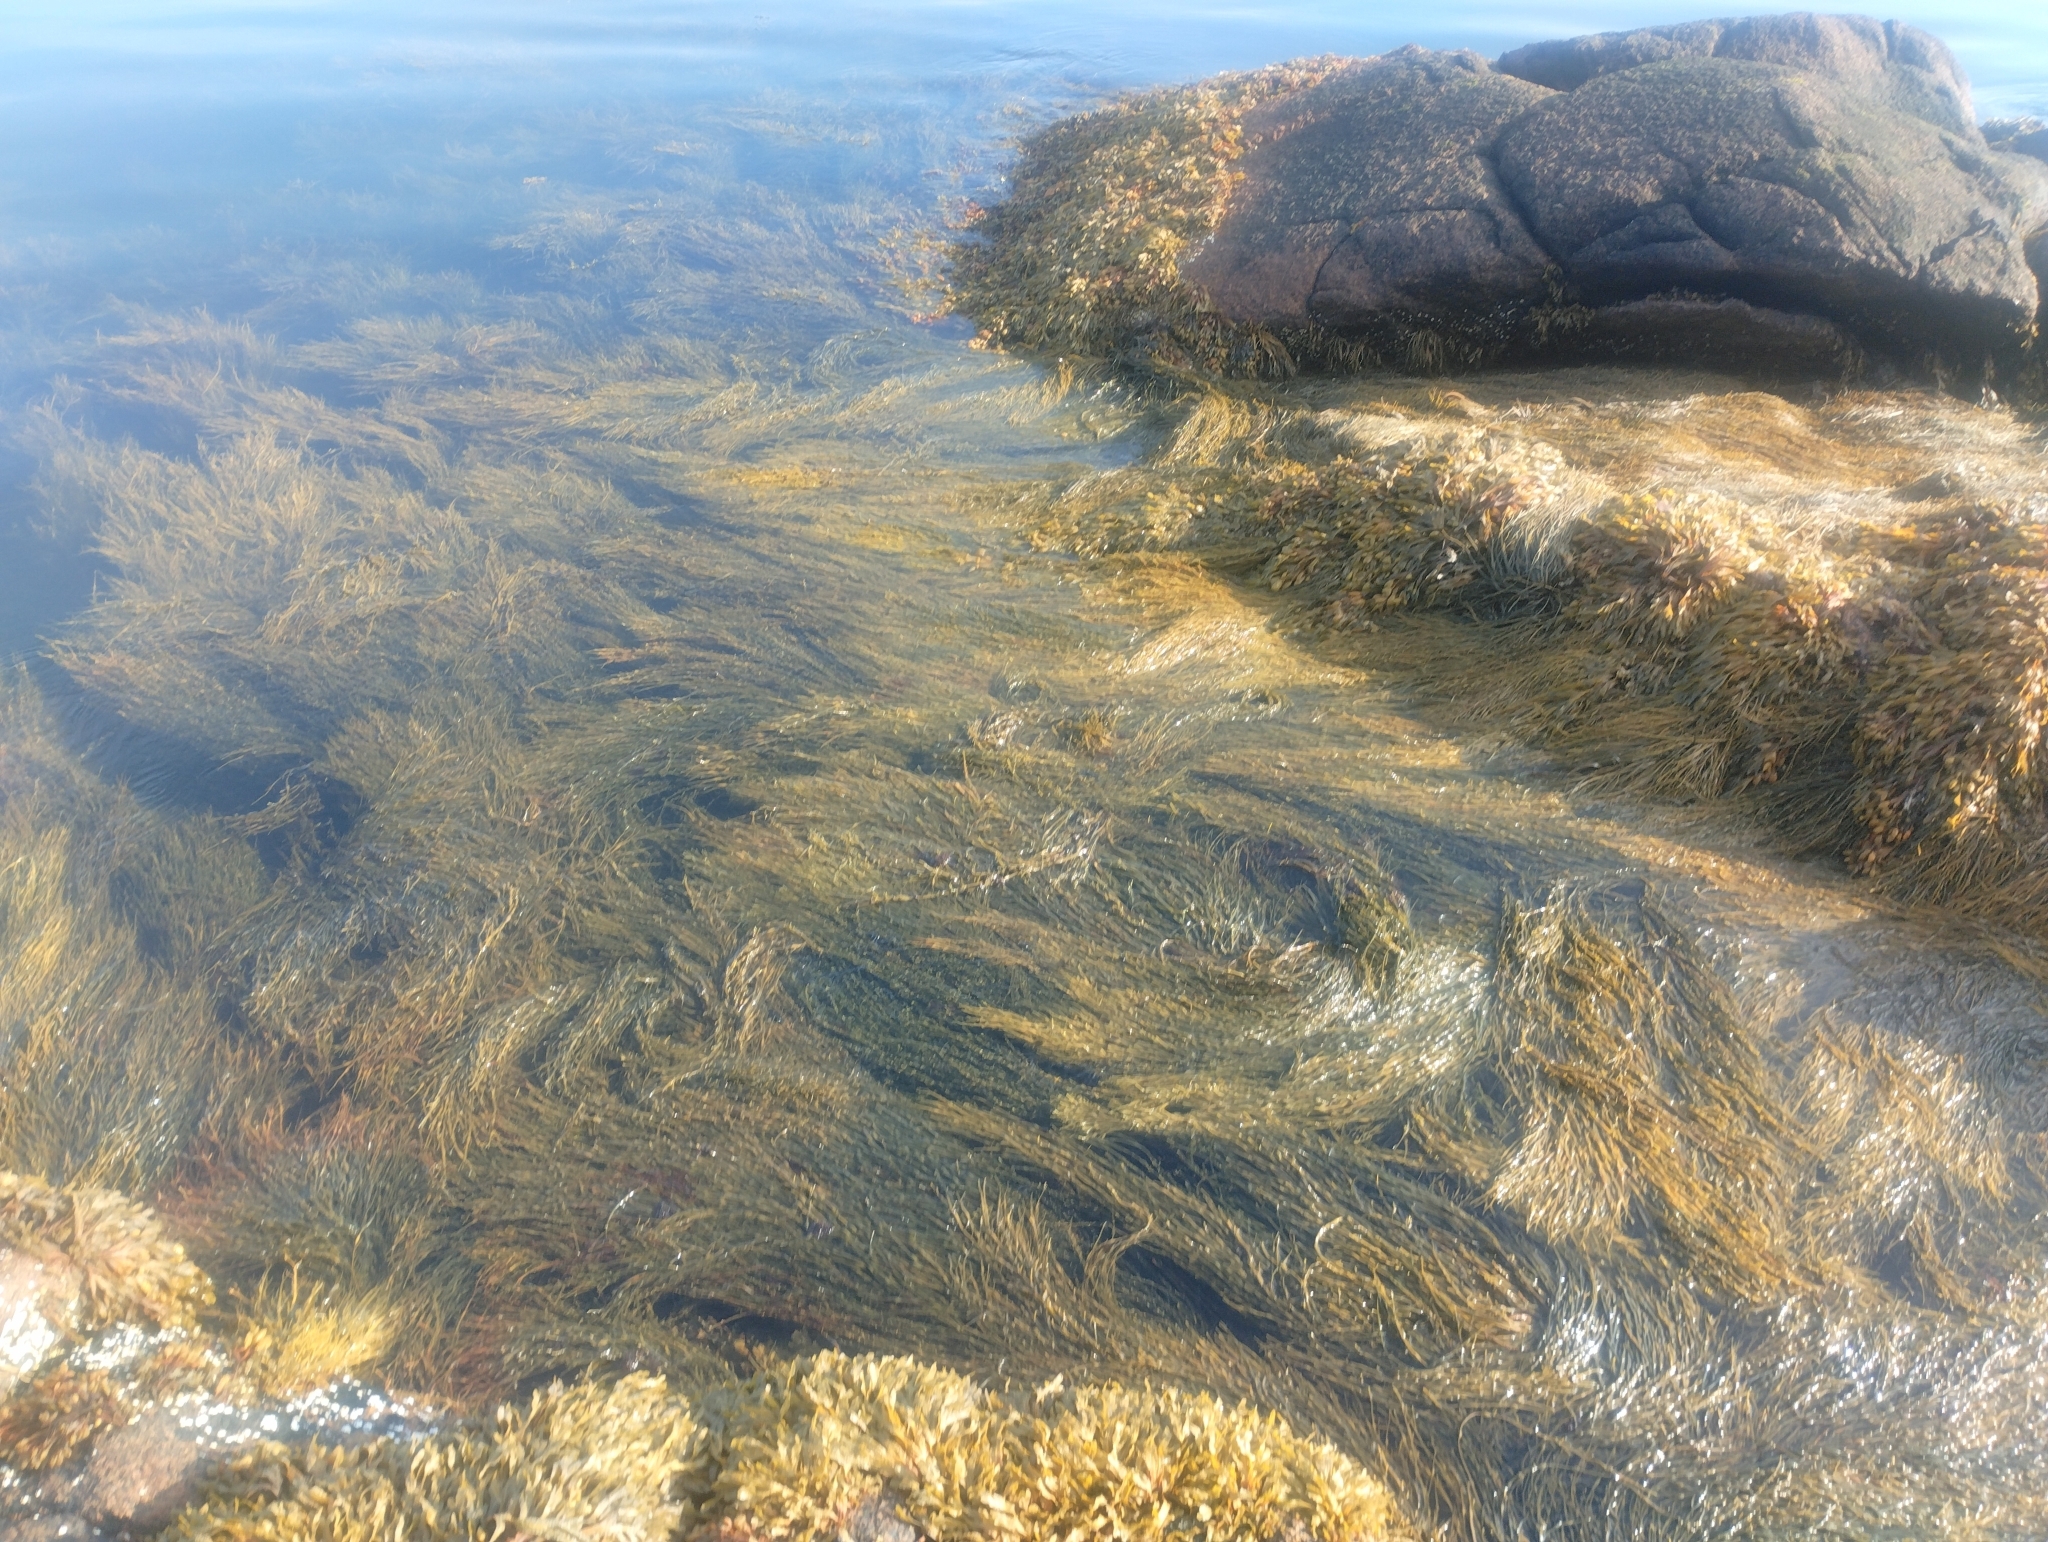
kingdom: Chromista
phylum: Ochrophyta
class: Phaeophyceae
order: Fucales
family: Fucaceae
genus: Ascophyllum
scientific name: Ascophyllum nodosum
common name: Knotted wrack
